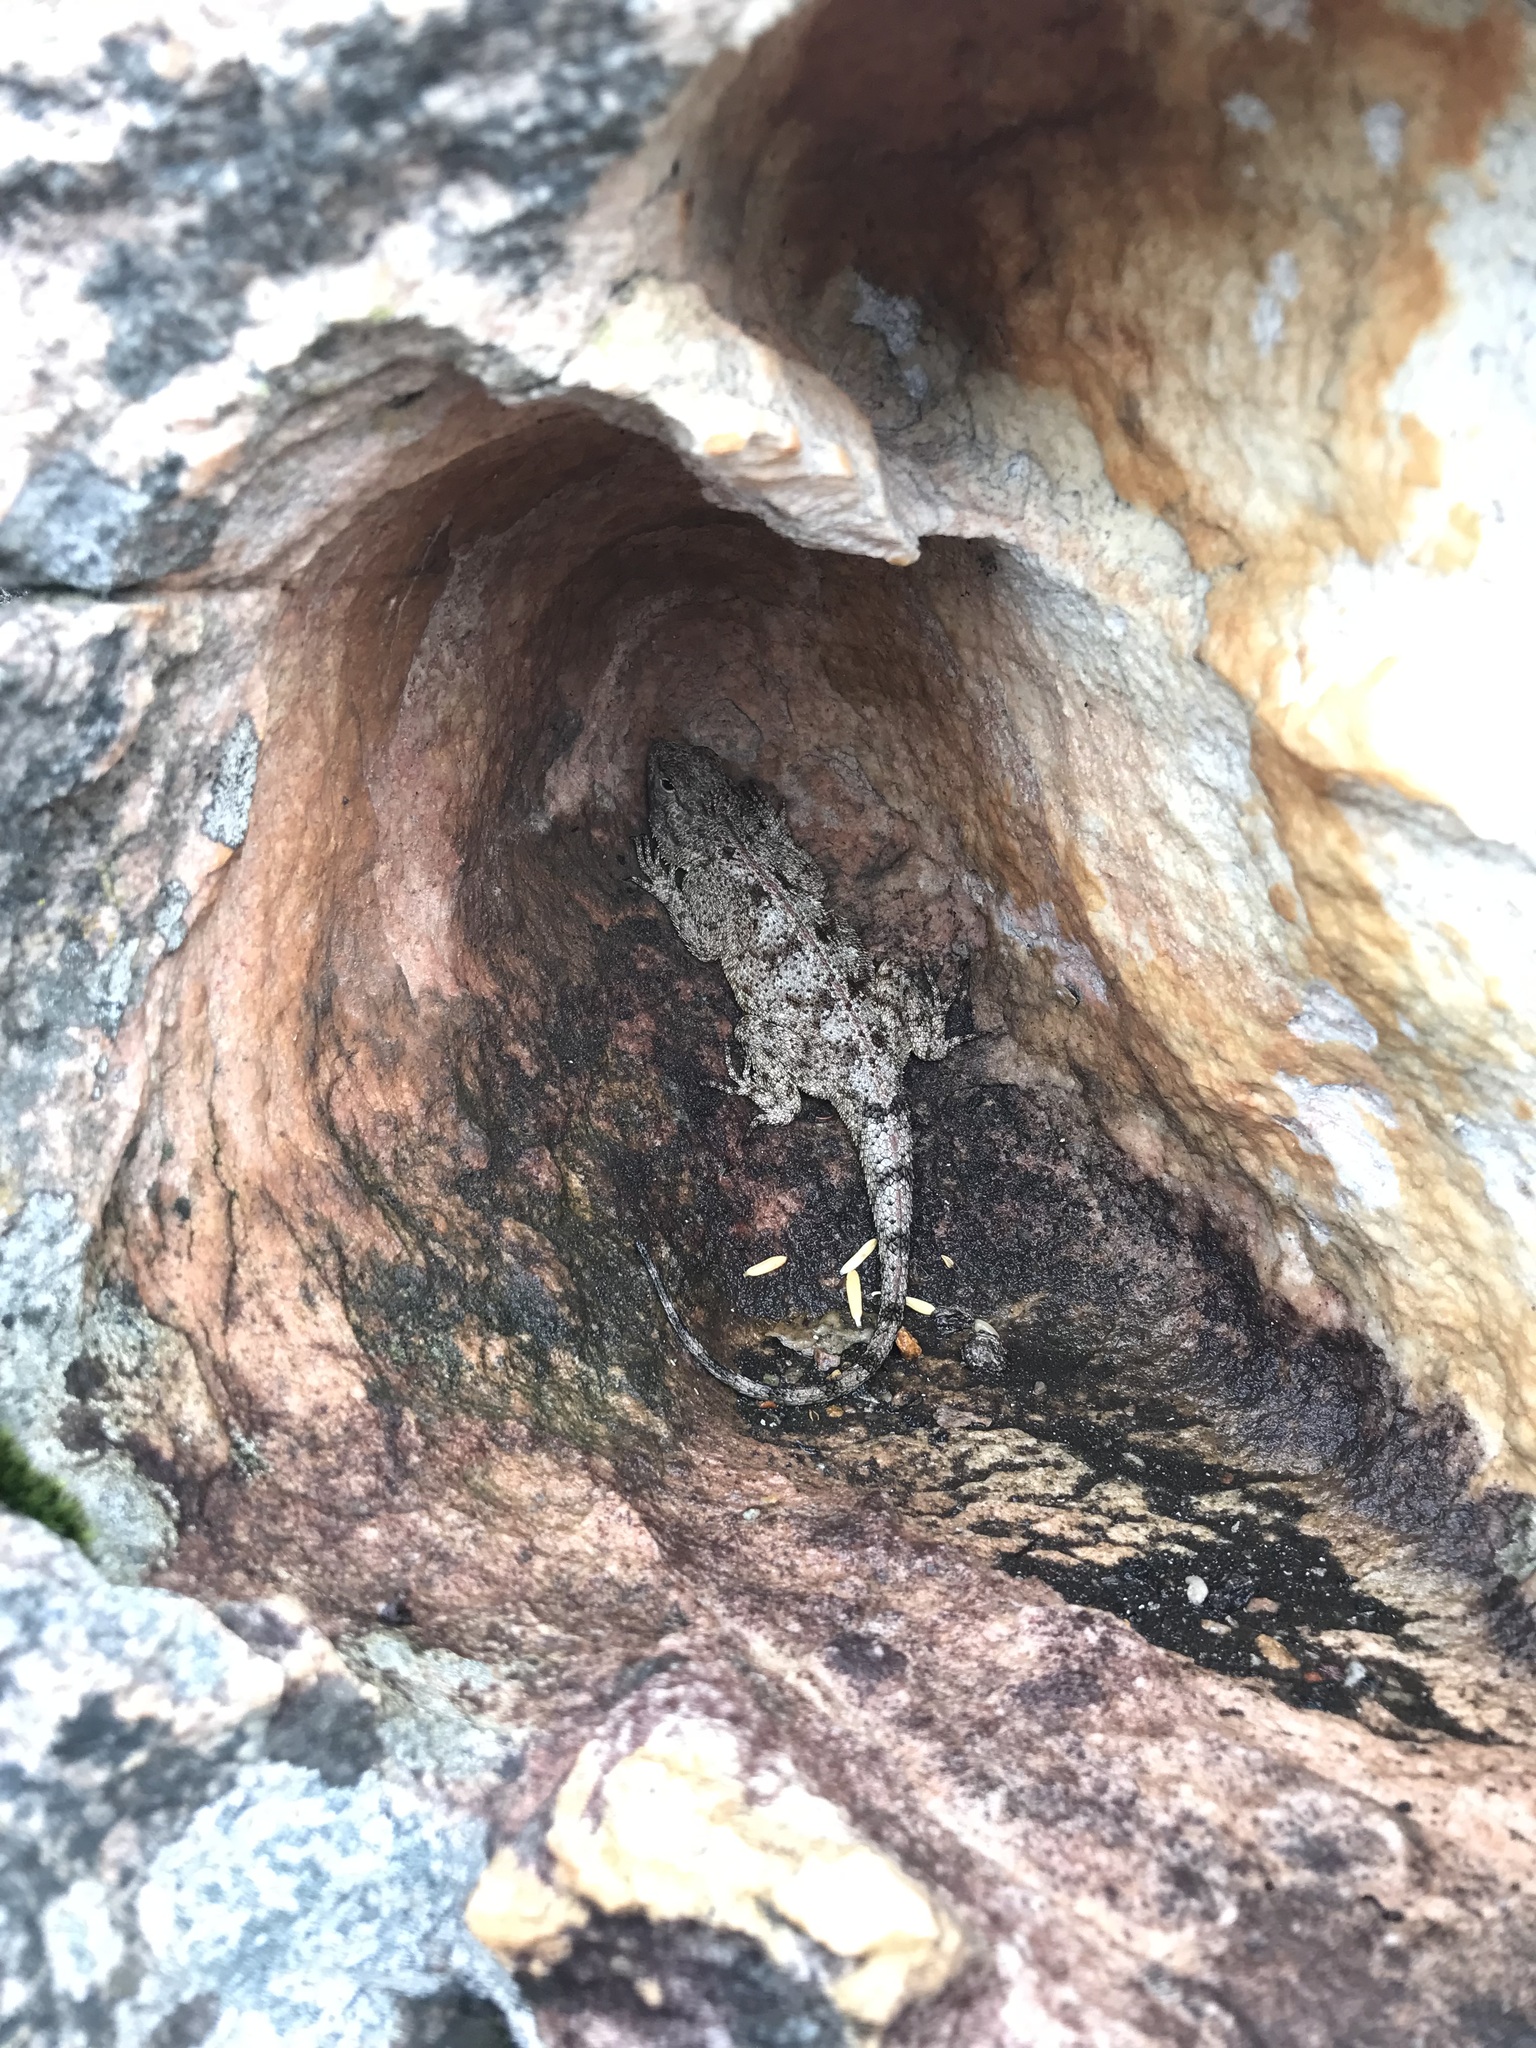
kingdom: Animalia
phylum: Chordata
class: Squamata
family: Agamidae
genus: Agama
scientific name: Agama atra
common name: Southern african rock agama
